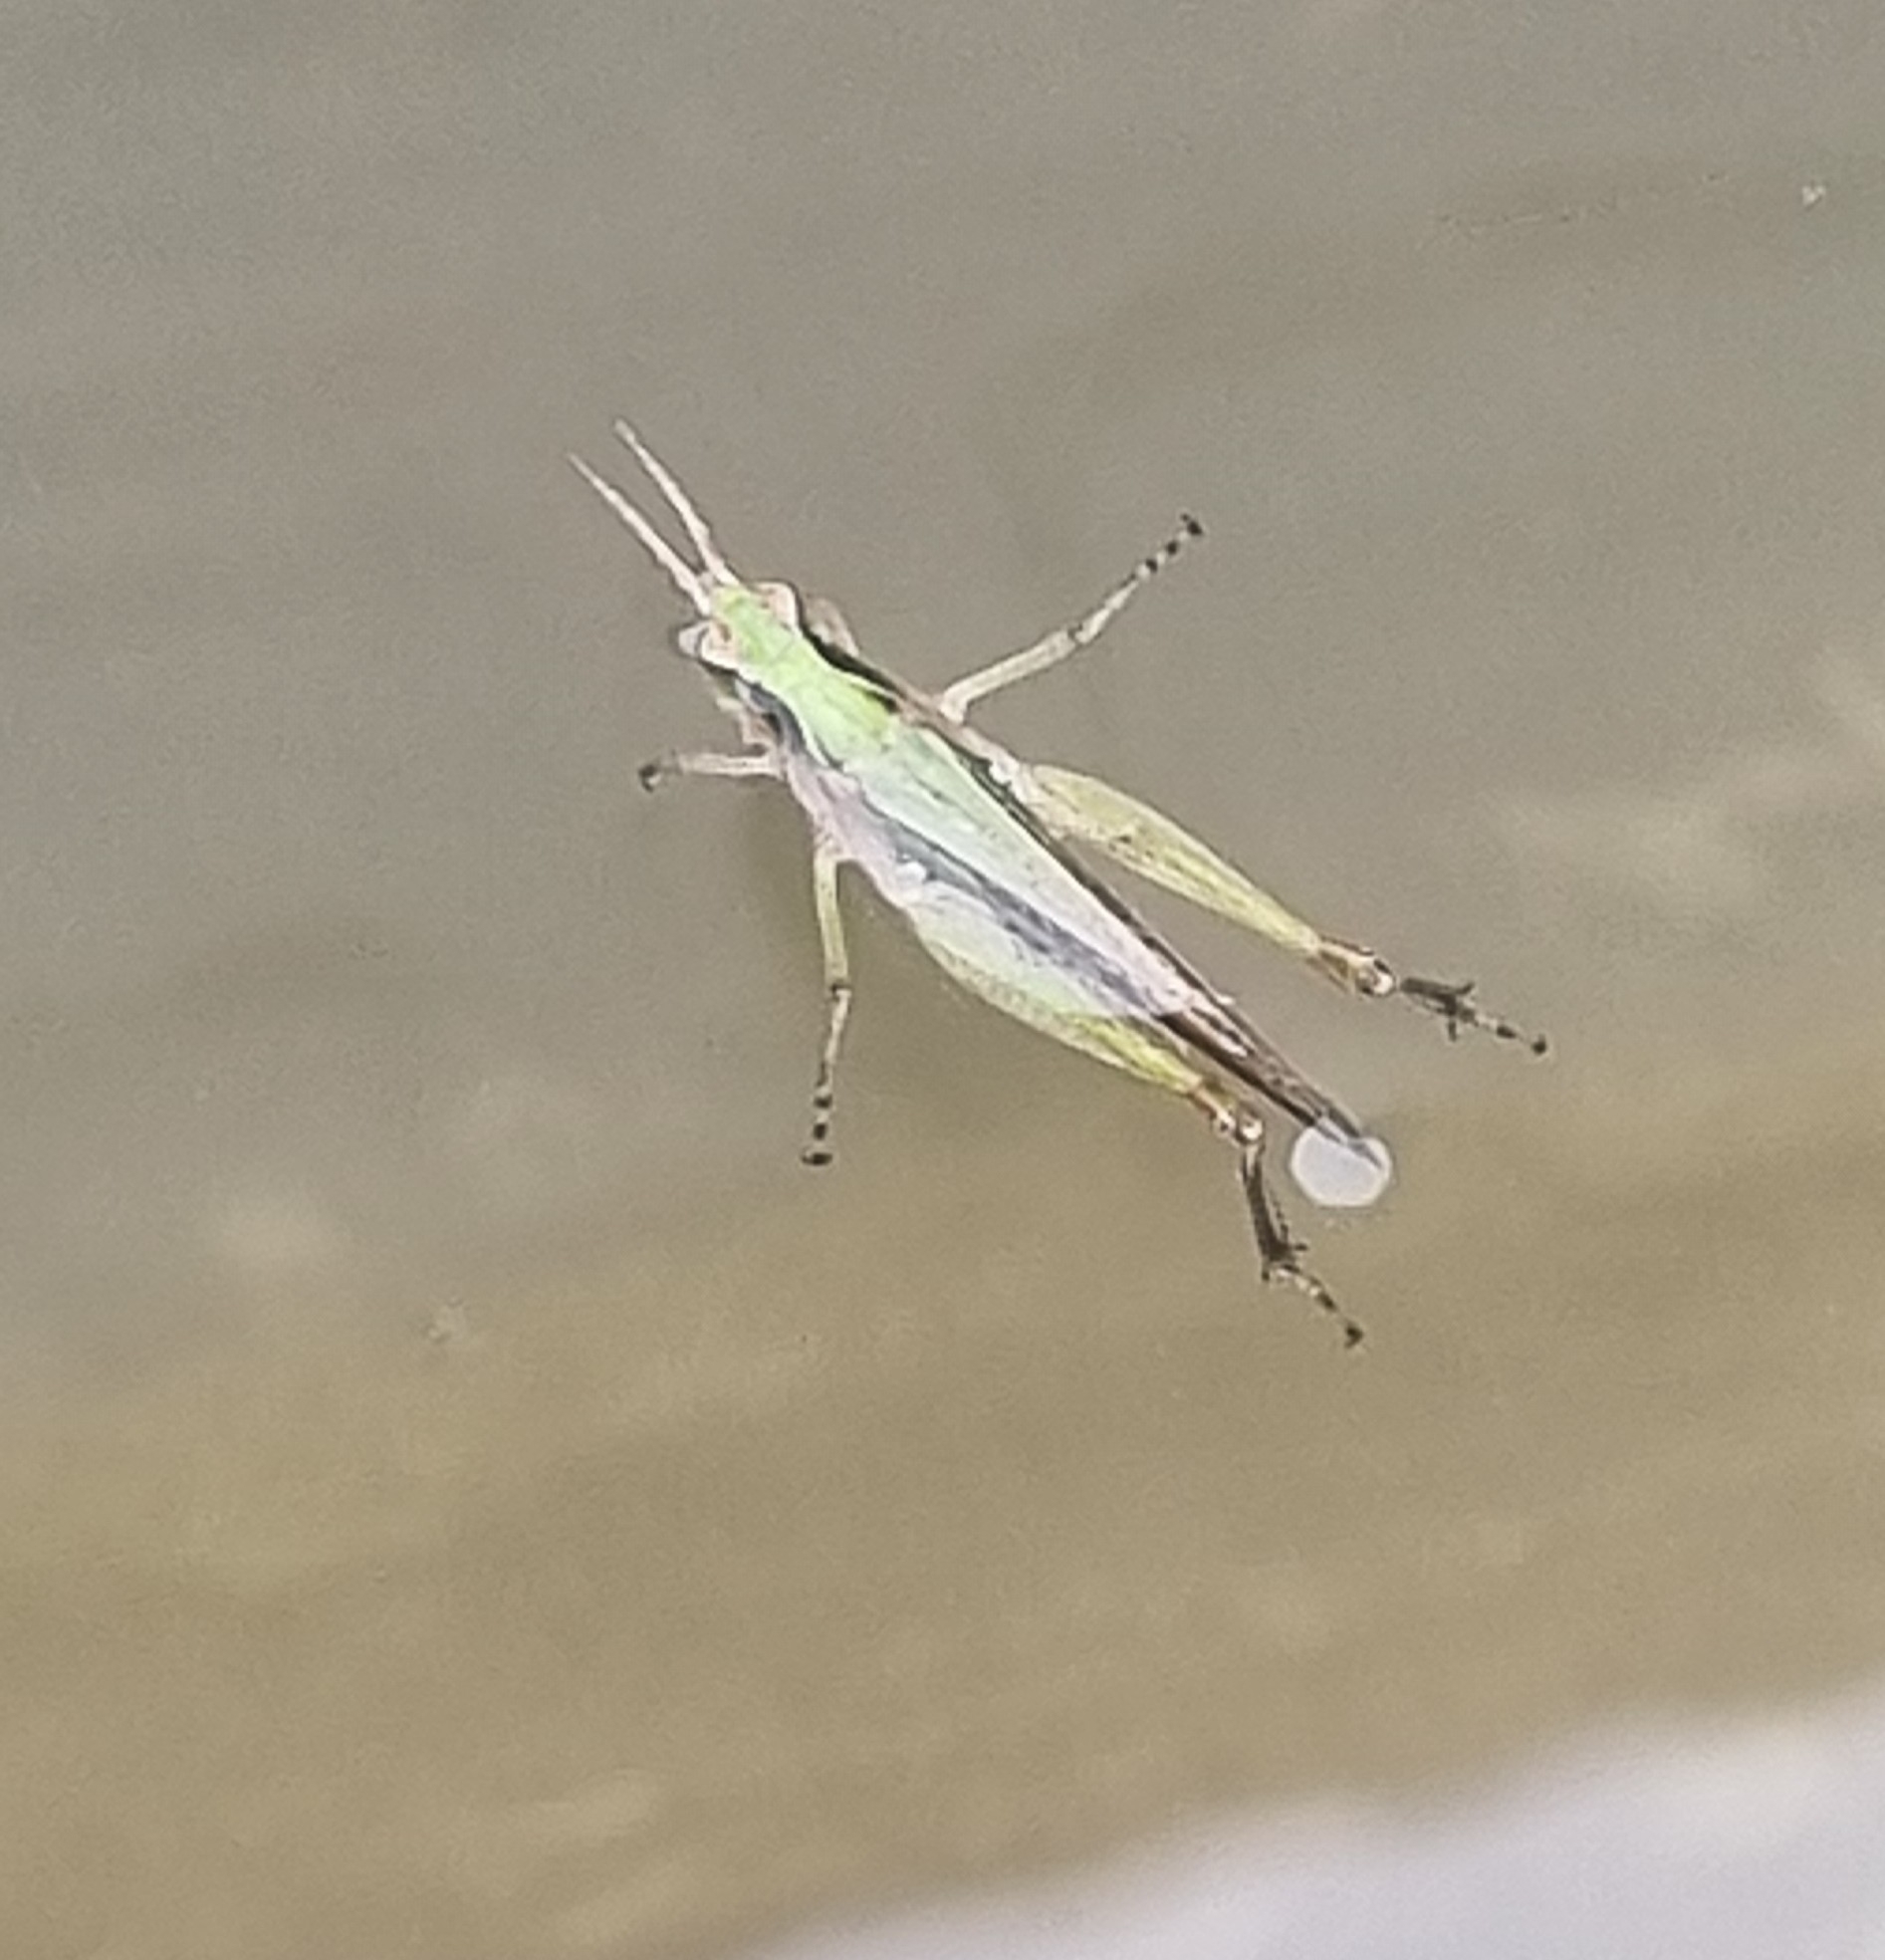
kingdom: Animalia
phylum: Arthropoda
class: Insecta
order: Orthoptera
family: Acrididae
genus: Orphulella
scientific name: Orphulella punctata
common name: Slant-faced grasshopper
